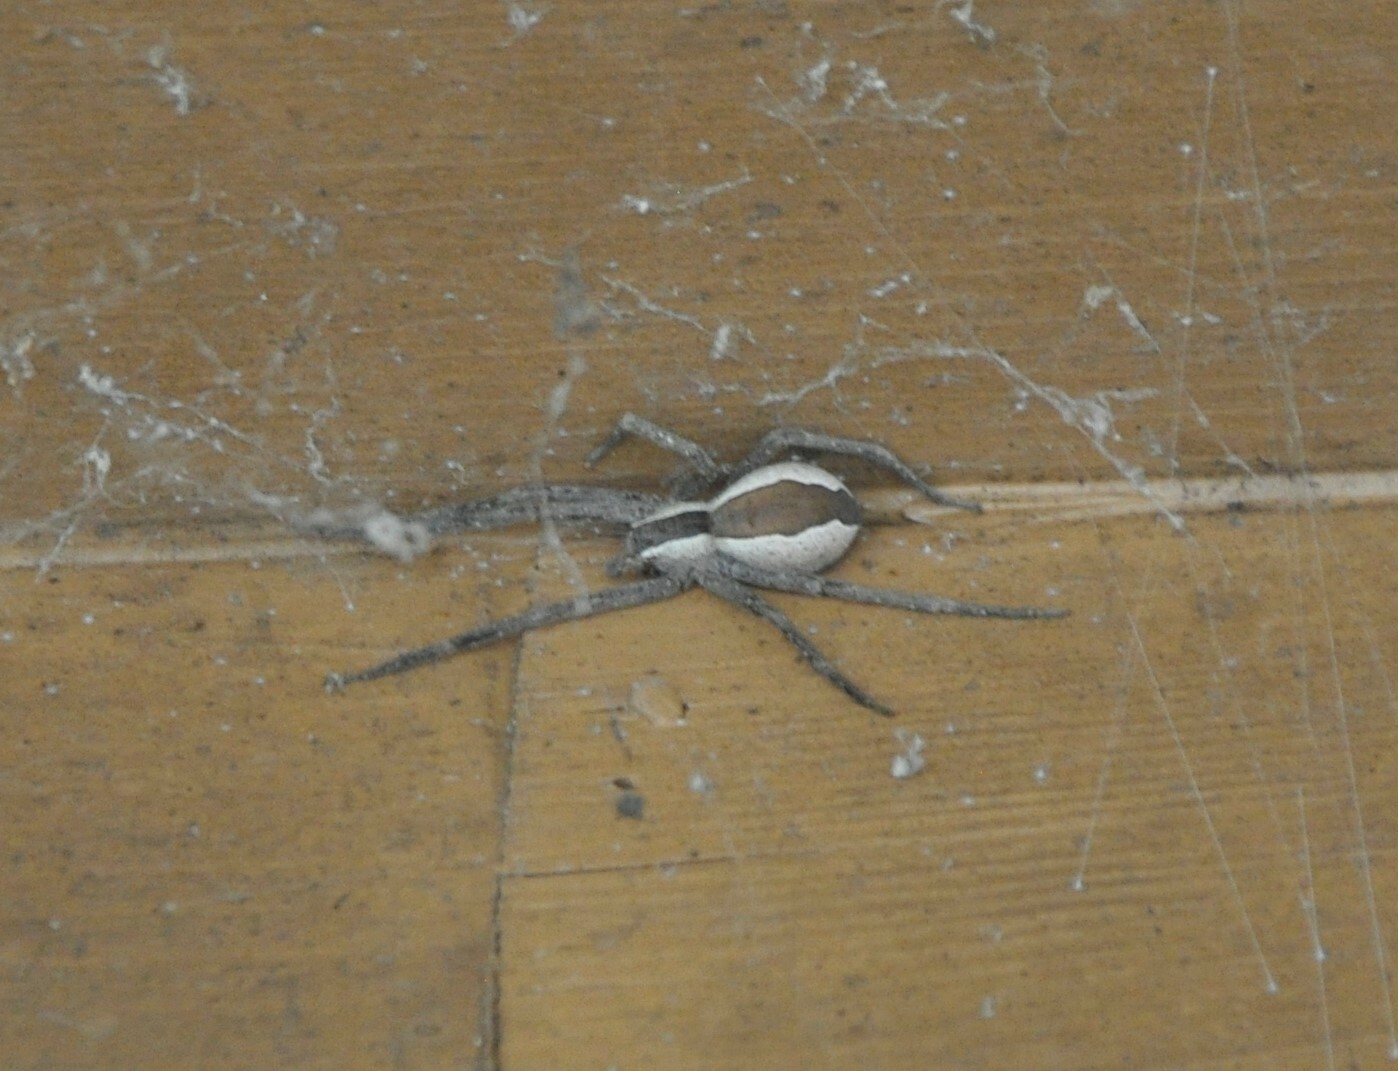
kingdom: Animalia
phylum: Arthropoda
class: Arachnida
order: Araneae
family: Pisauridae
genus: Pisaurina
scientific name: Pisaurina mira
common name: American nursery web spider
